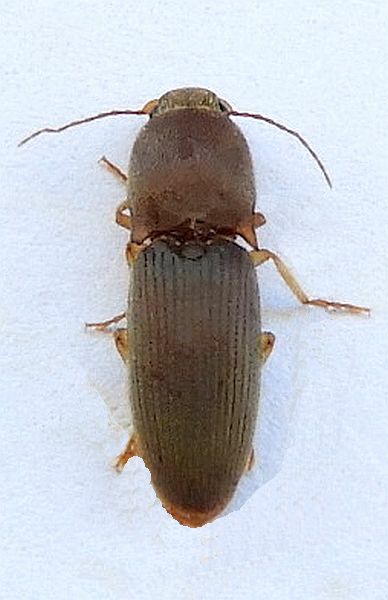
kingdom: Animalia
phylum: Arthropoda
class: Insecta
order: Coleoptera
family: Elateridae
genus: Heteroderes
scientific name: Heteroderes sordidus
